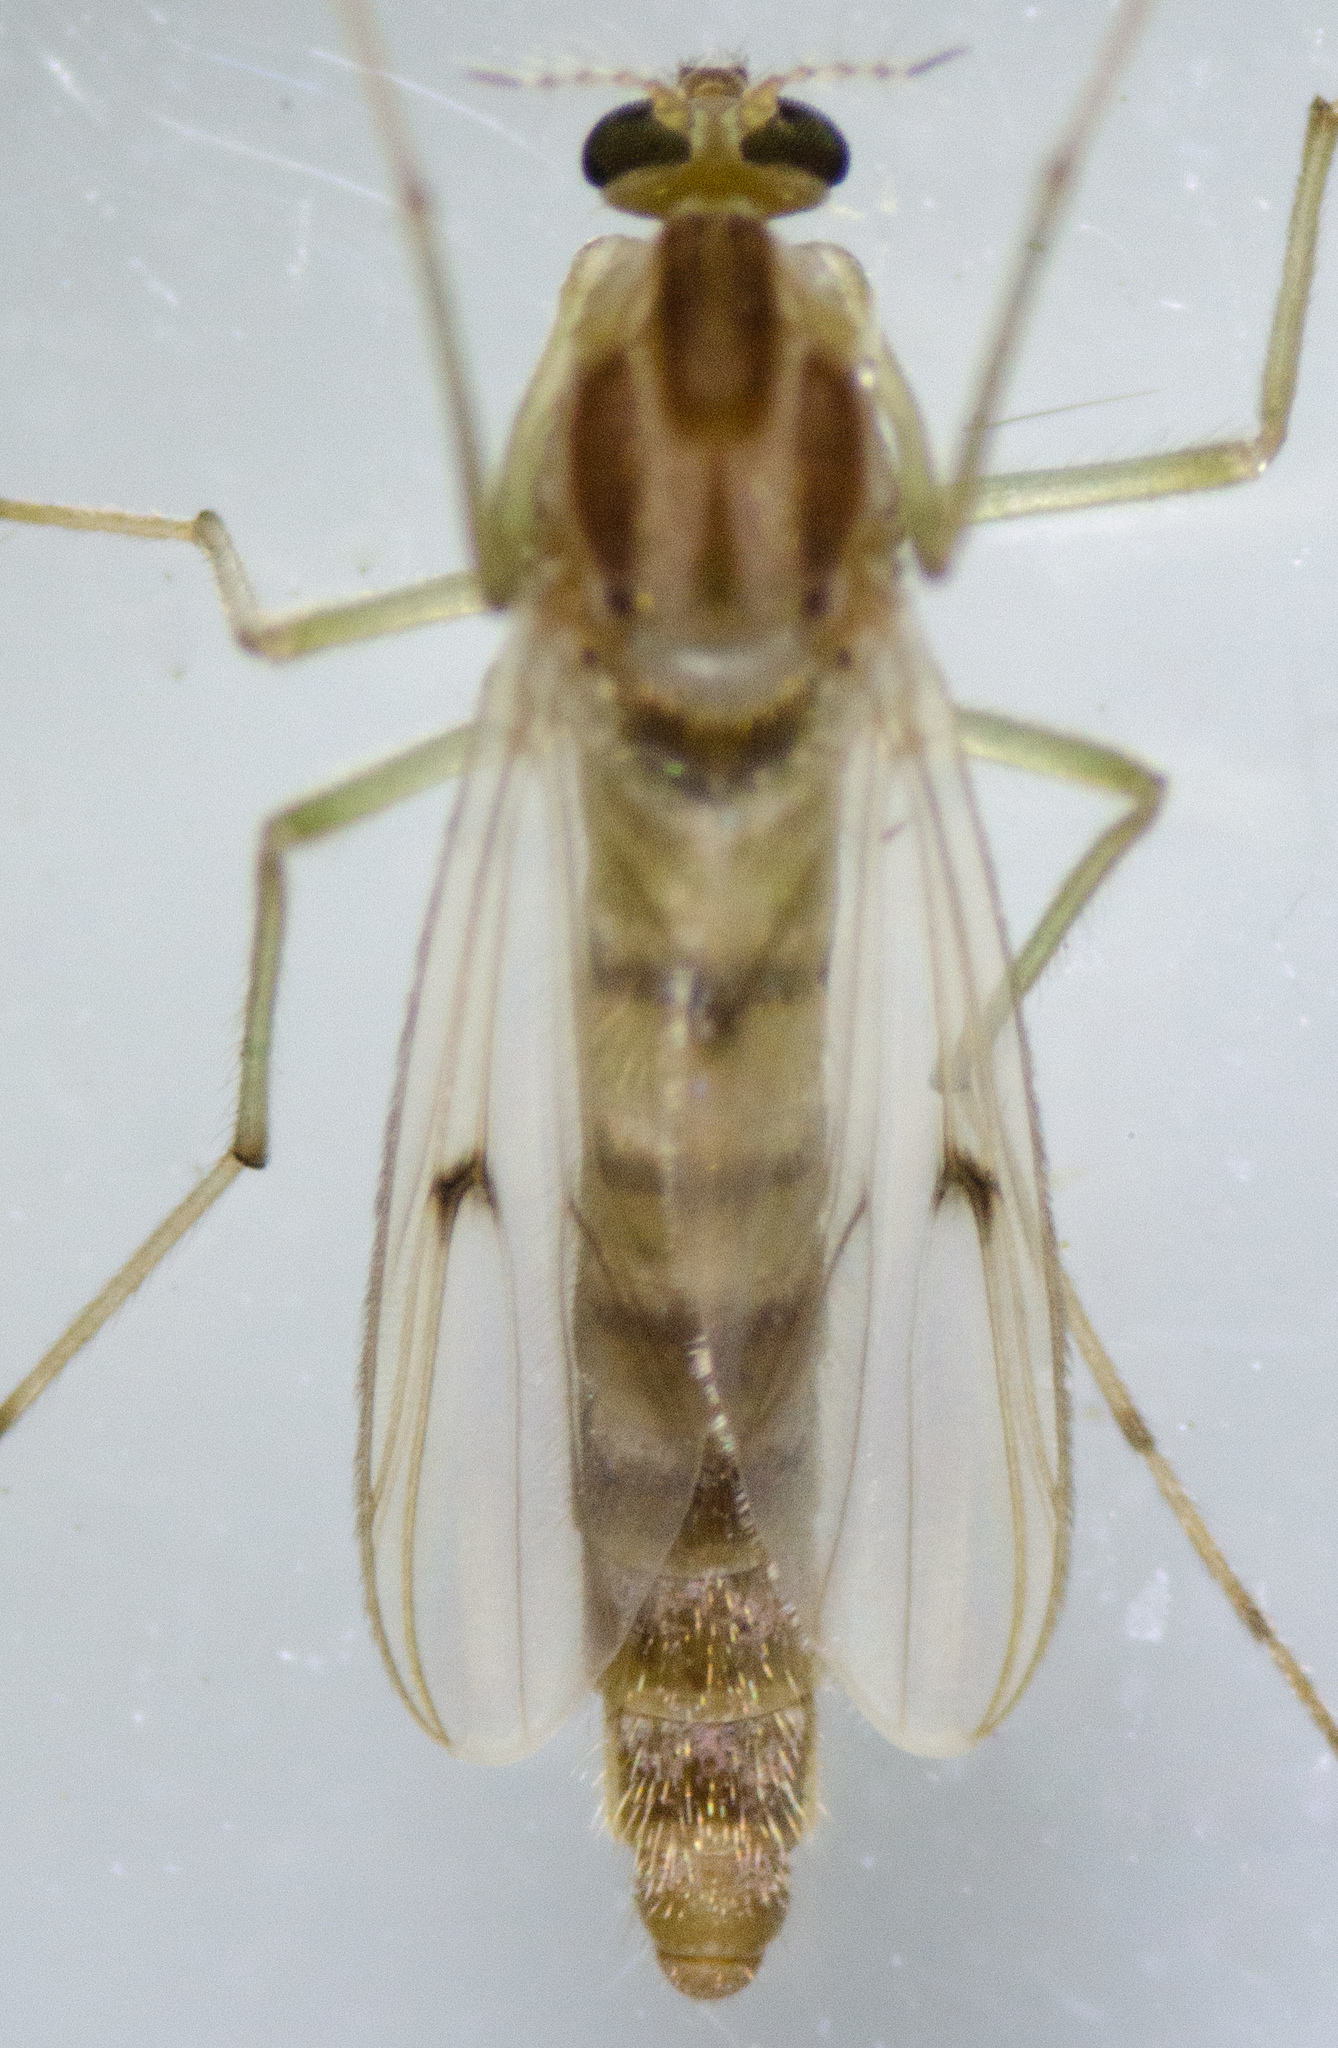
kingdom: Animalia
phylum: Arthropoda
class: Insecta
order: Diptera
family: Chironomidae
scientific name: Chironomidae
